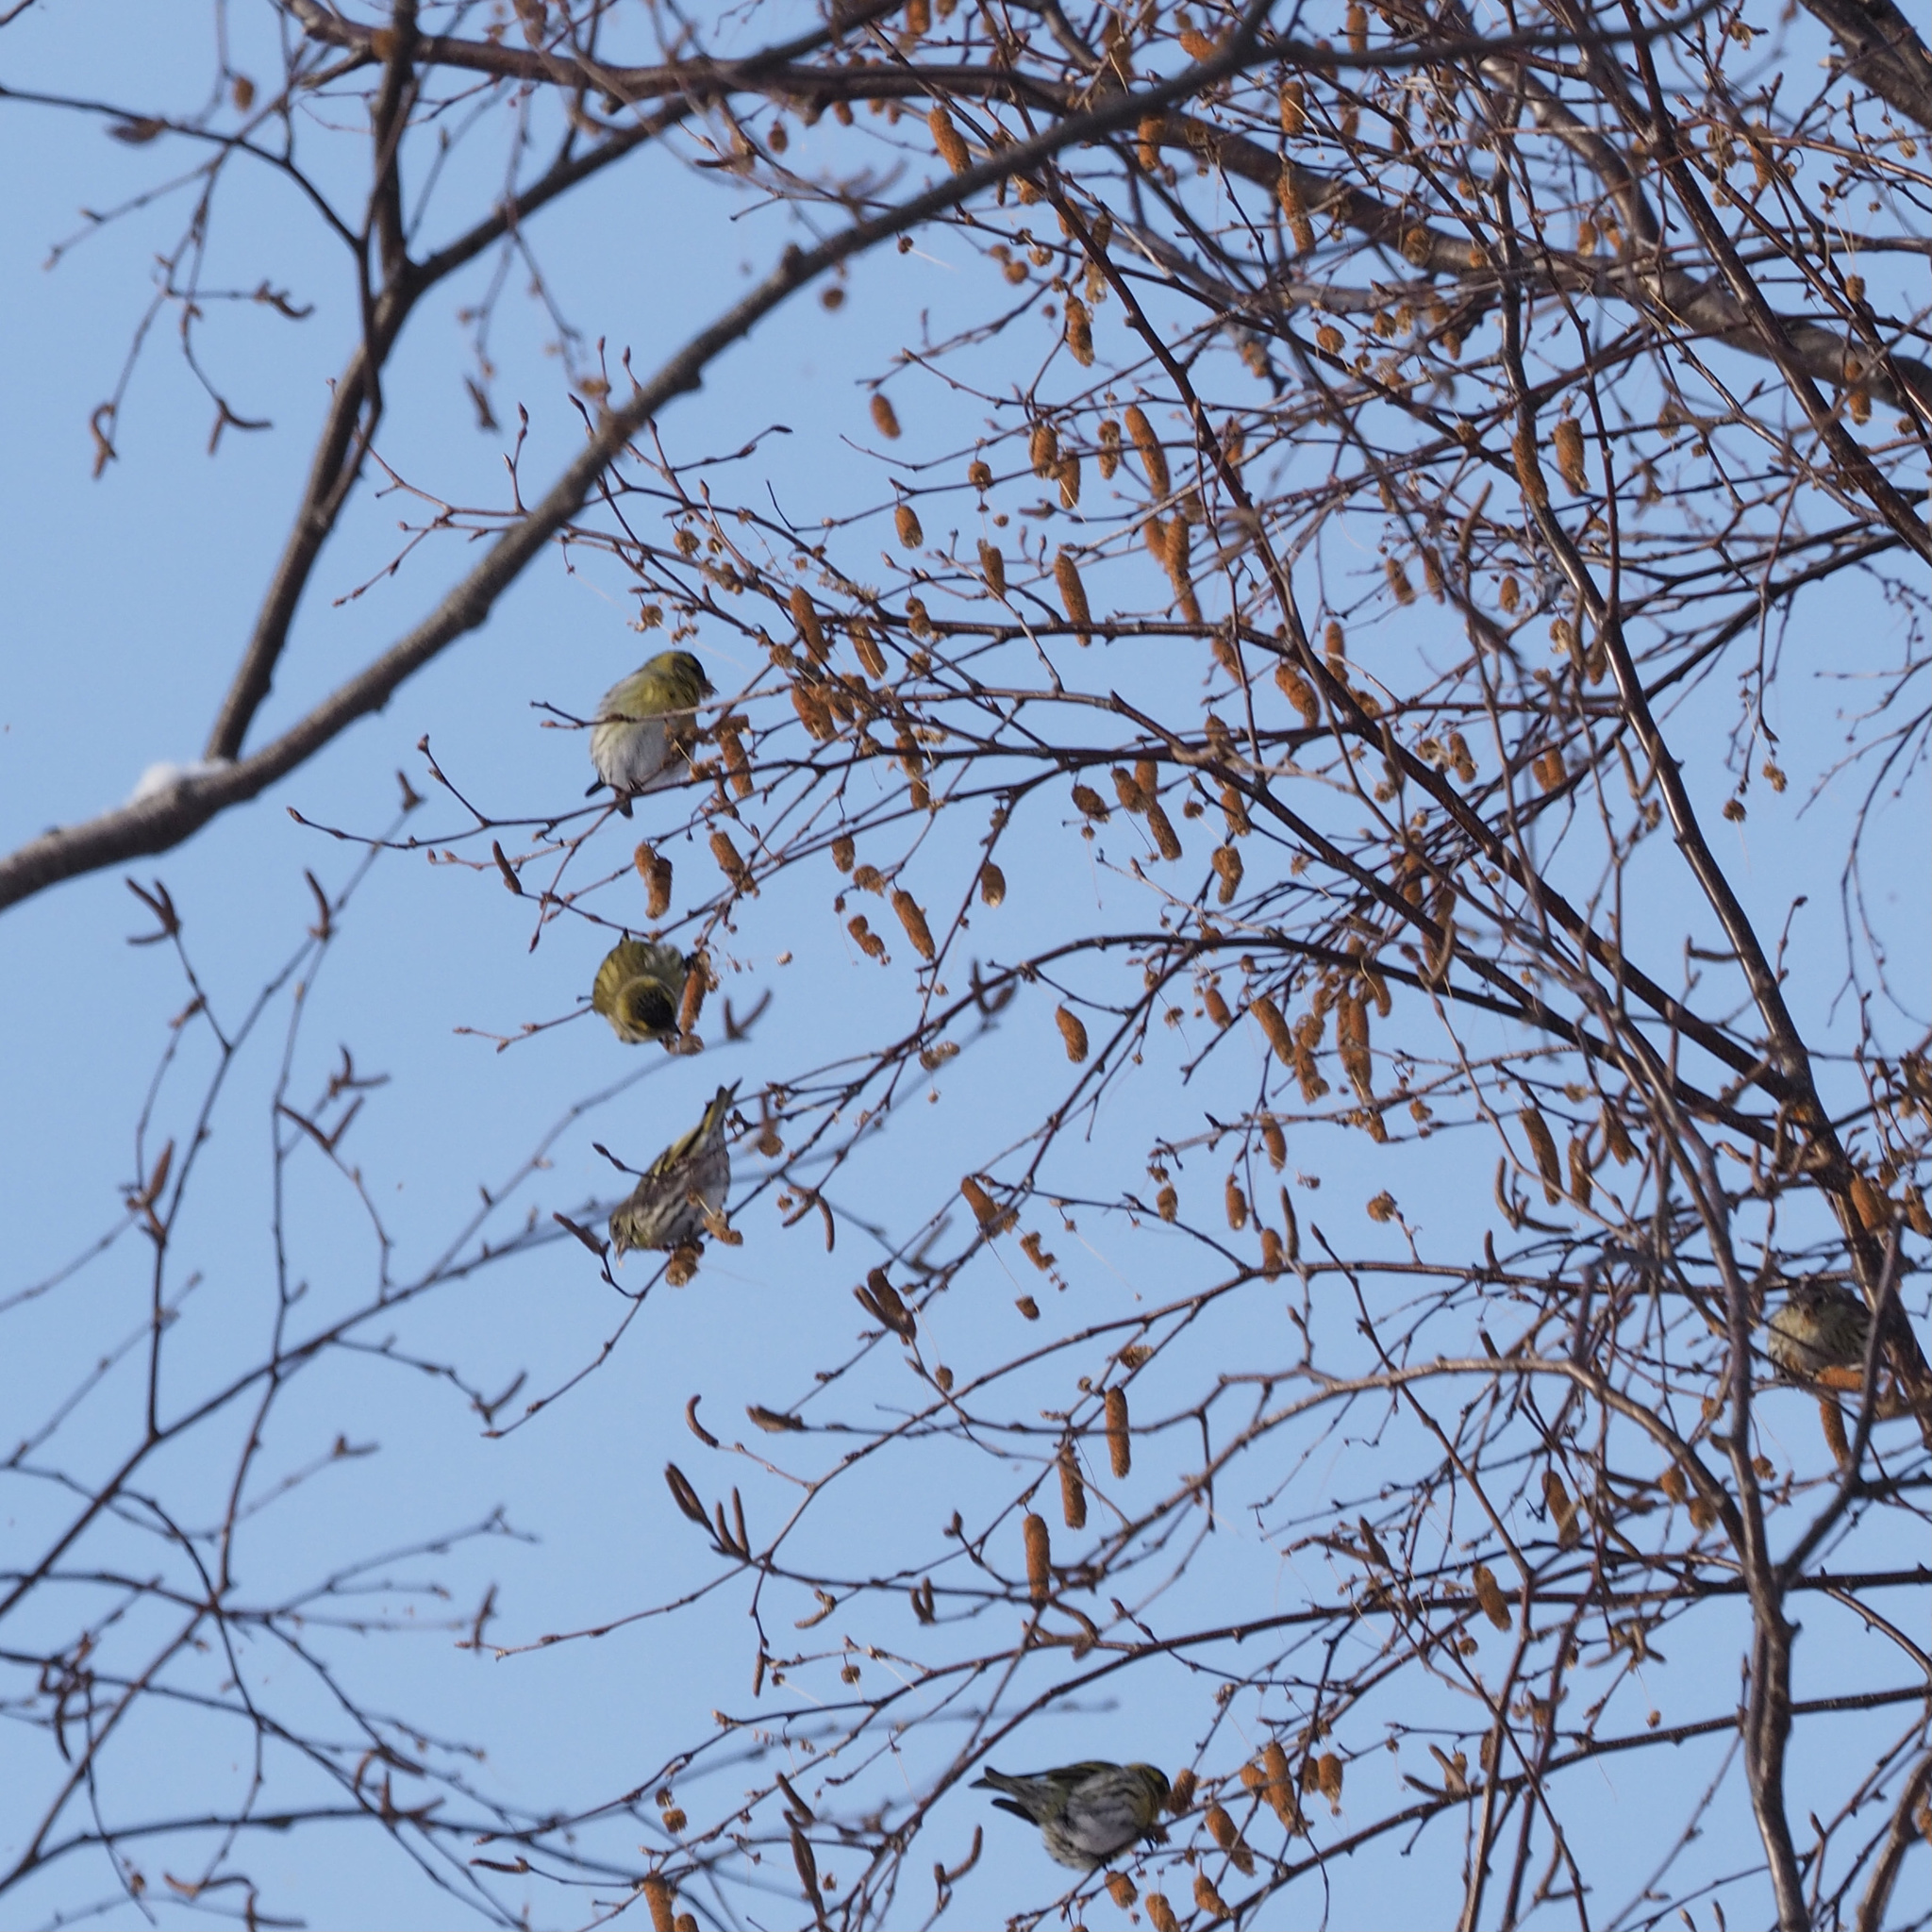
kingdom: Animalia
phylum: Chordata
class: Aves
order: Passeriformes
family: Fringillidae
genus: Spinus
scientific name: Spinus spinus
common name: Eurasian siskin
